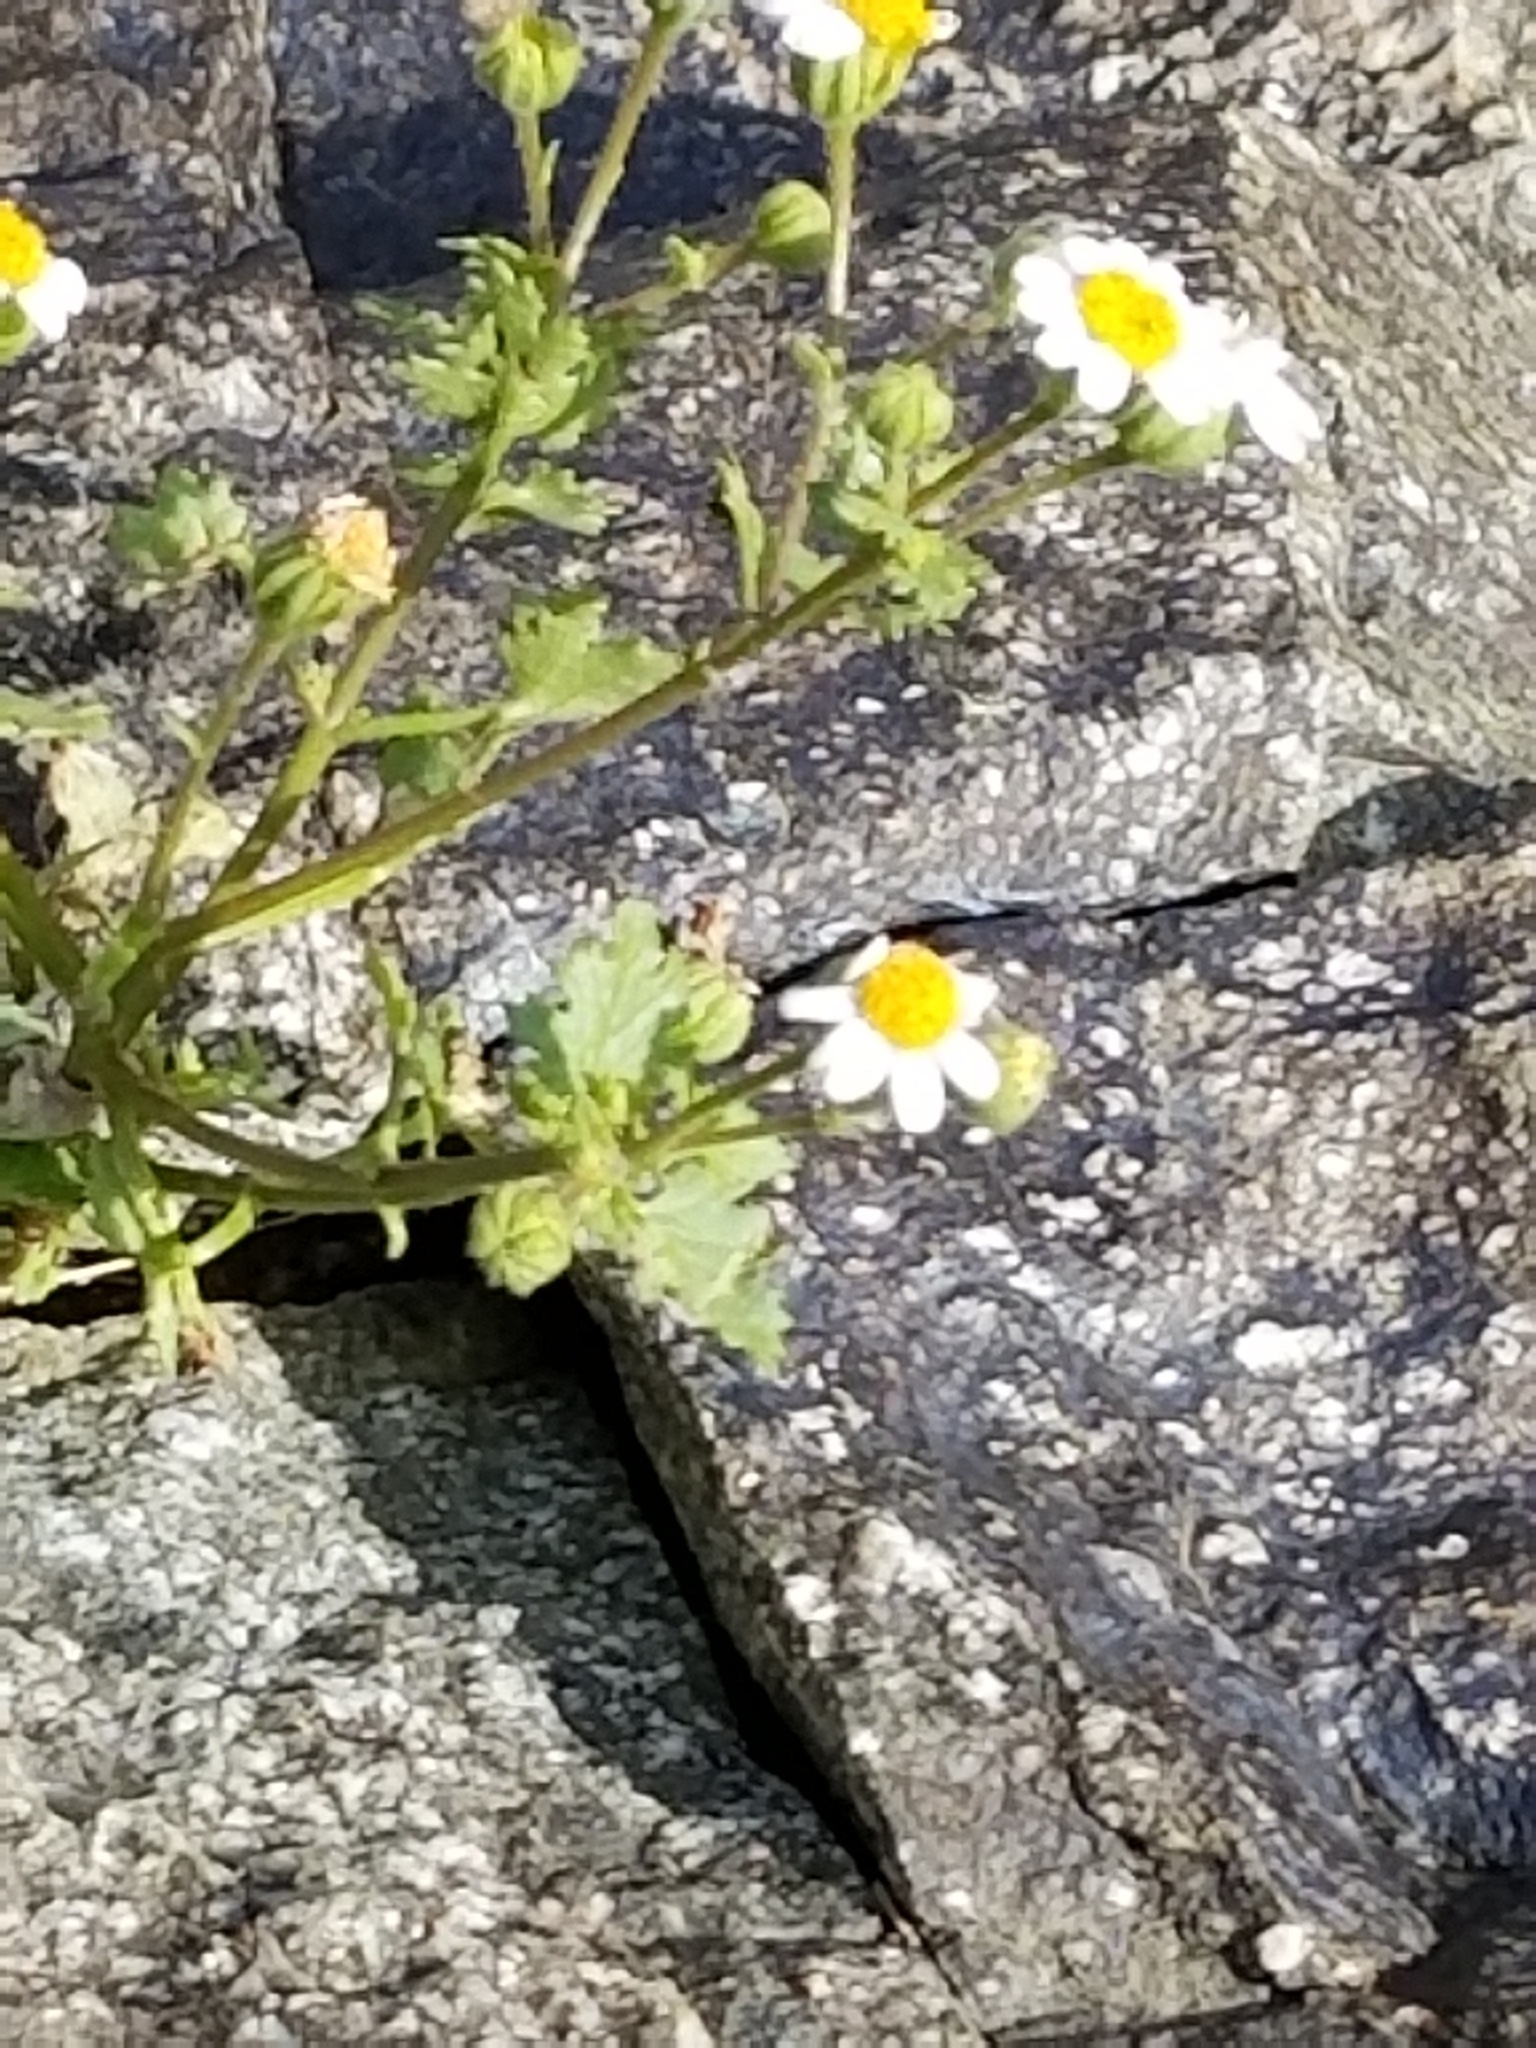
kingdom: Plantae
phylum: Tracheophyta
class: Magnoliopsida
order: Asterales
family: Asteraceae
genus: Laphamia
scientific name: Laphamia emoryi
